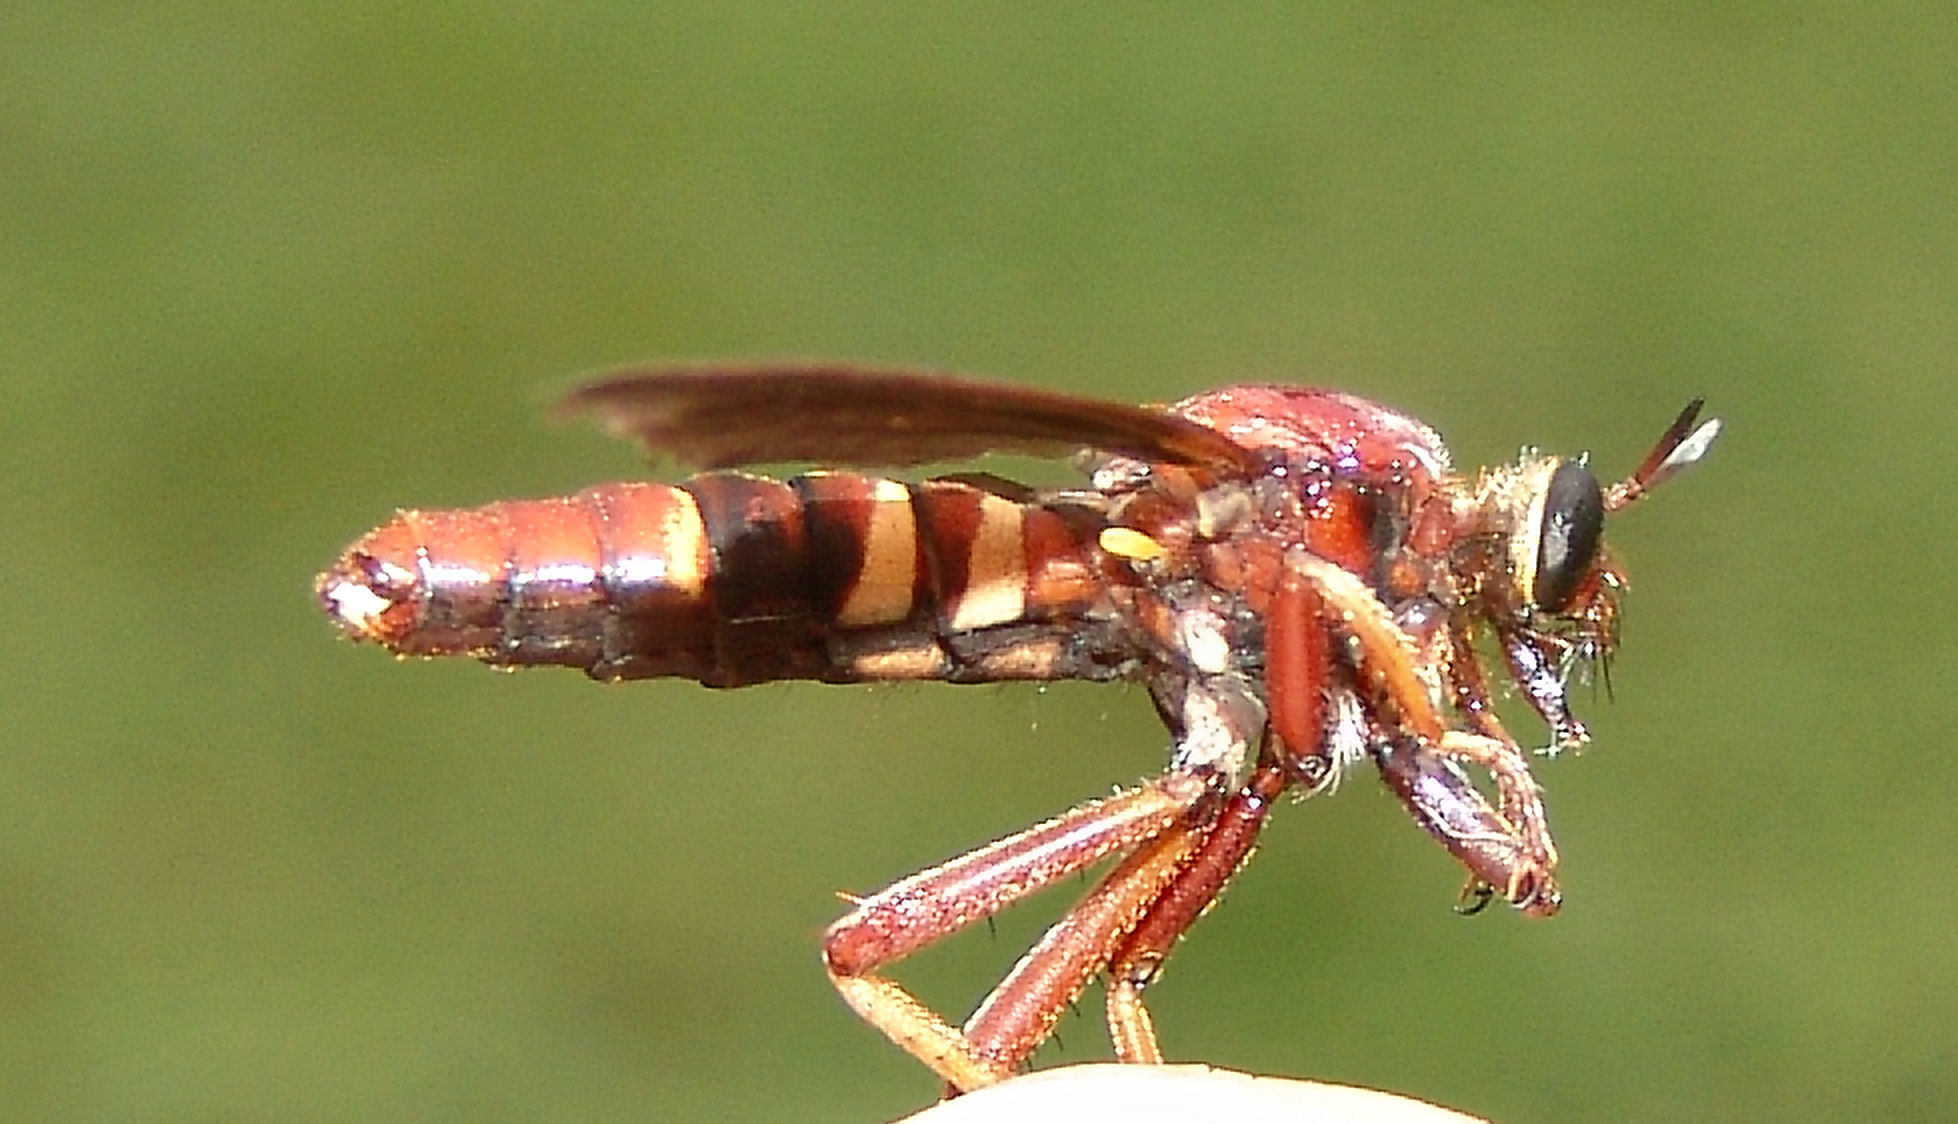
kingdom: Animalia
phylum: Arthropoda
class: Insecta
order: Diptera
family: Asilidae
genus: Prolepsis
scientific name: Prolepsis tristis
